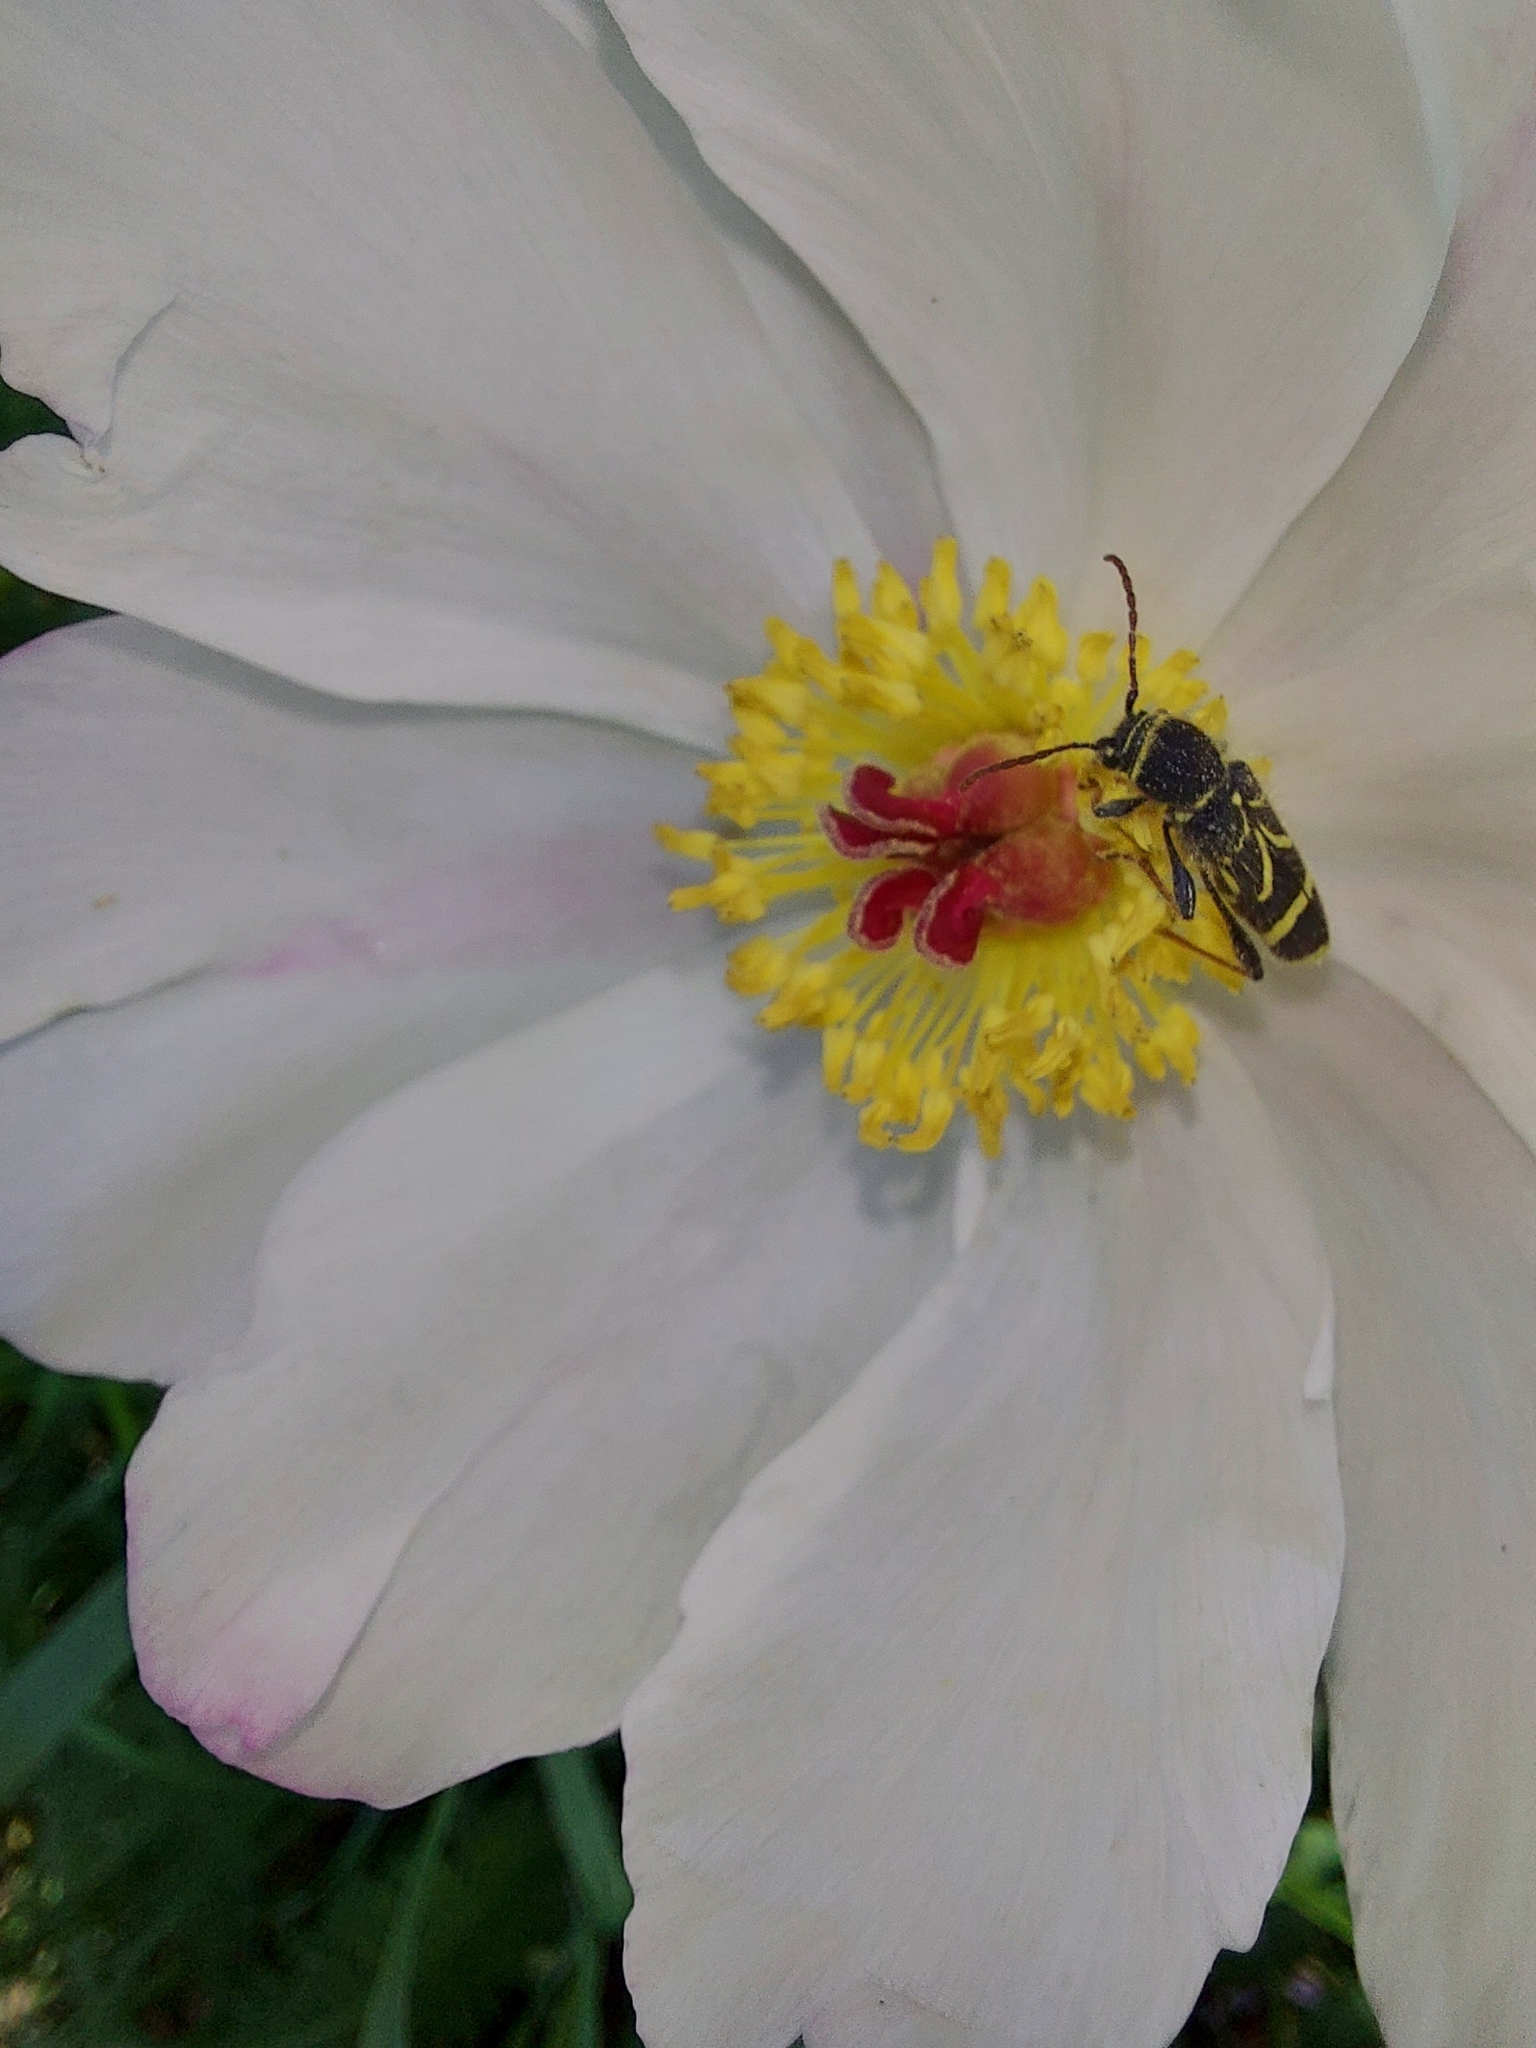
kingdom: Animalia
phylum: Arthropoda
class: Insecta
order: Coleoptera
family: Cerambycidae
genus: Cyrtoclytus
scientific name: Cyrtoclytus capra
